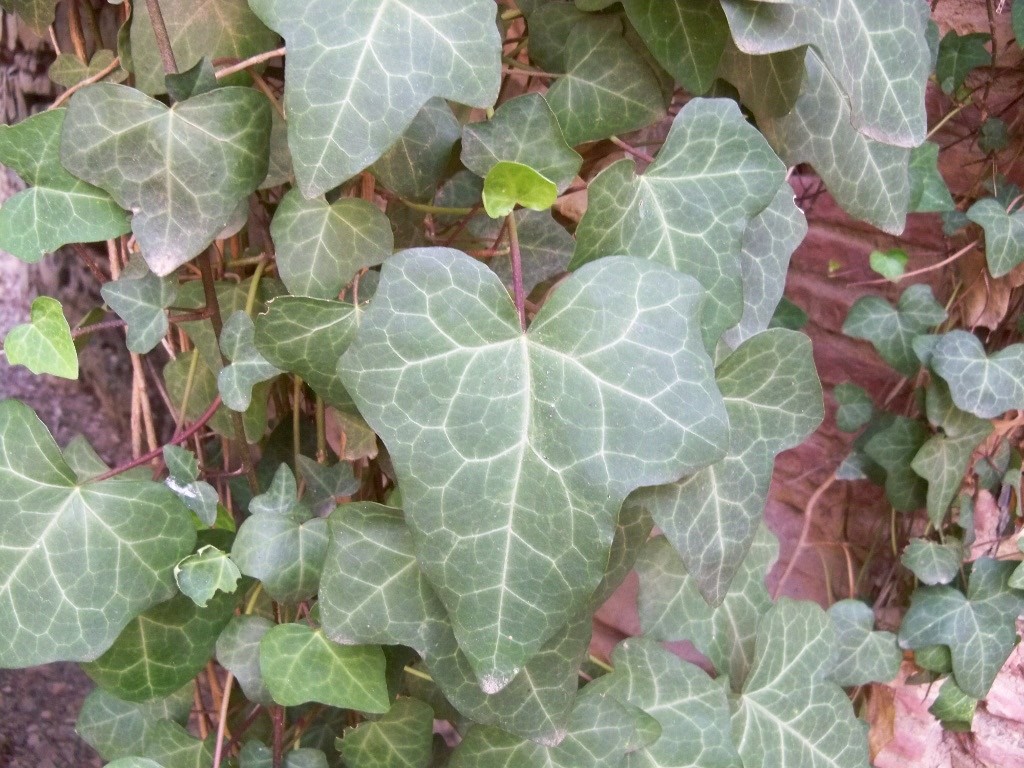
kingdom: Plantae
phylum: Tracheophyta
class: Magnoliopsida
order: Apiales
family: Araliaceae
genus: Hedera
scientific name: Hedera helix
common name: Ivy
